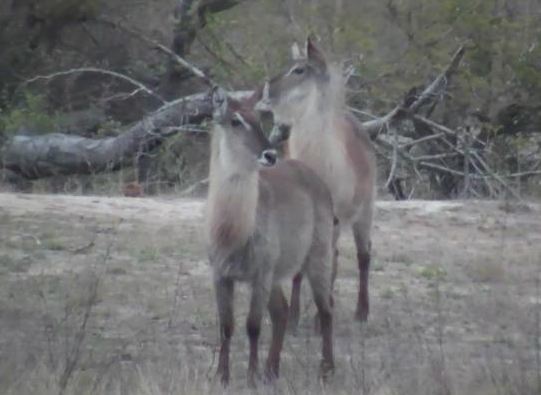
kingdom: Animalia
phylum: Chordata
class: Mammalia
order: Artiodactyla
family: Bovidae
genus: Kobus
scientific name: Kobus ellipsiprymnus
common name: Waterbuck
